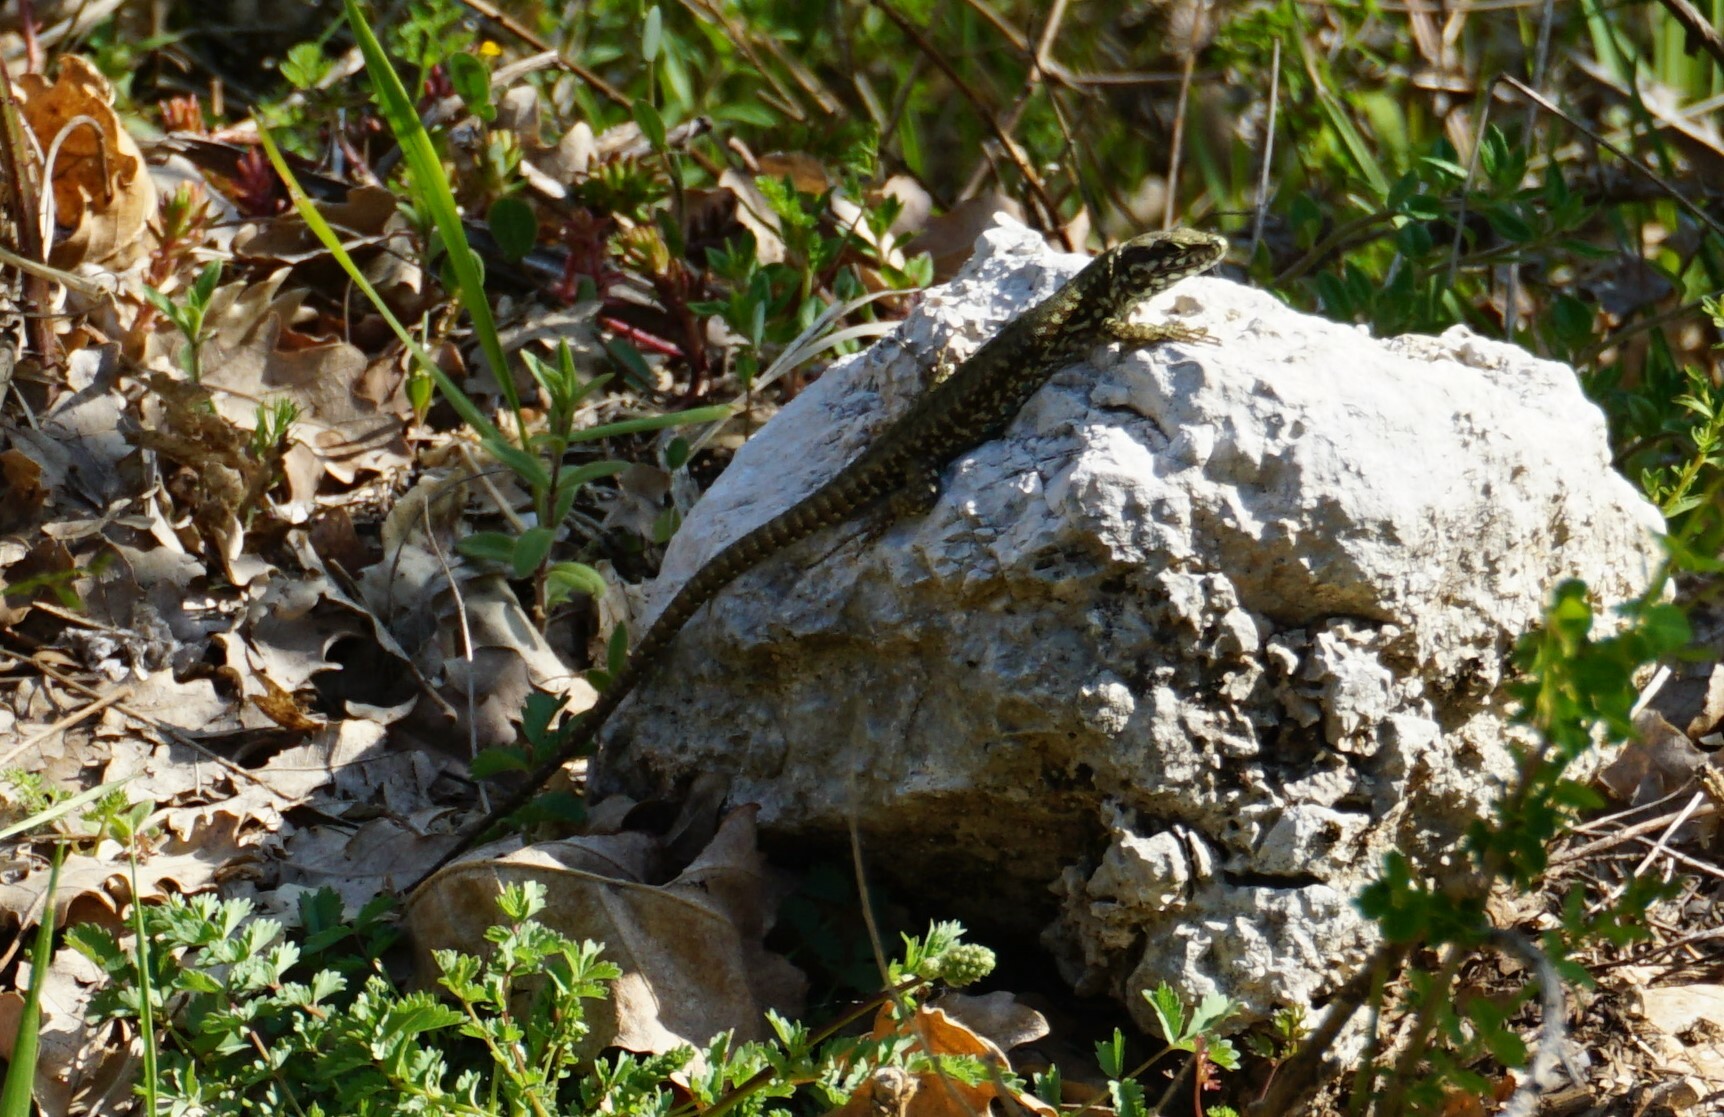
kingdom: Animalia
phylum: Chordata
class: Squamata
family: Lacertidae
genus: Podarcis
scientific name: Podarcis muralis
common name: Common wall lizard
